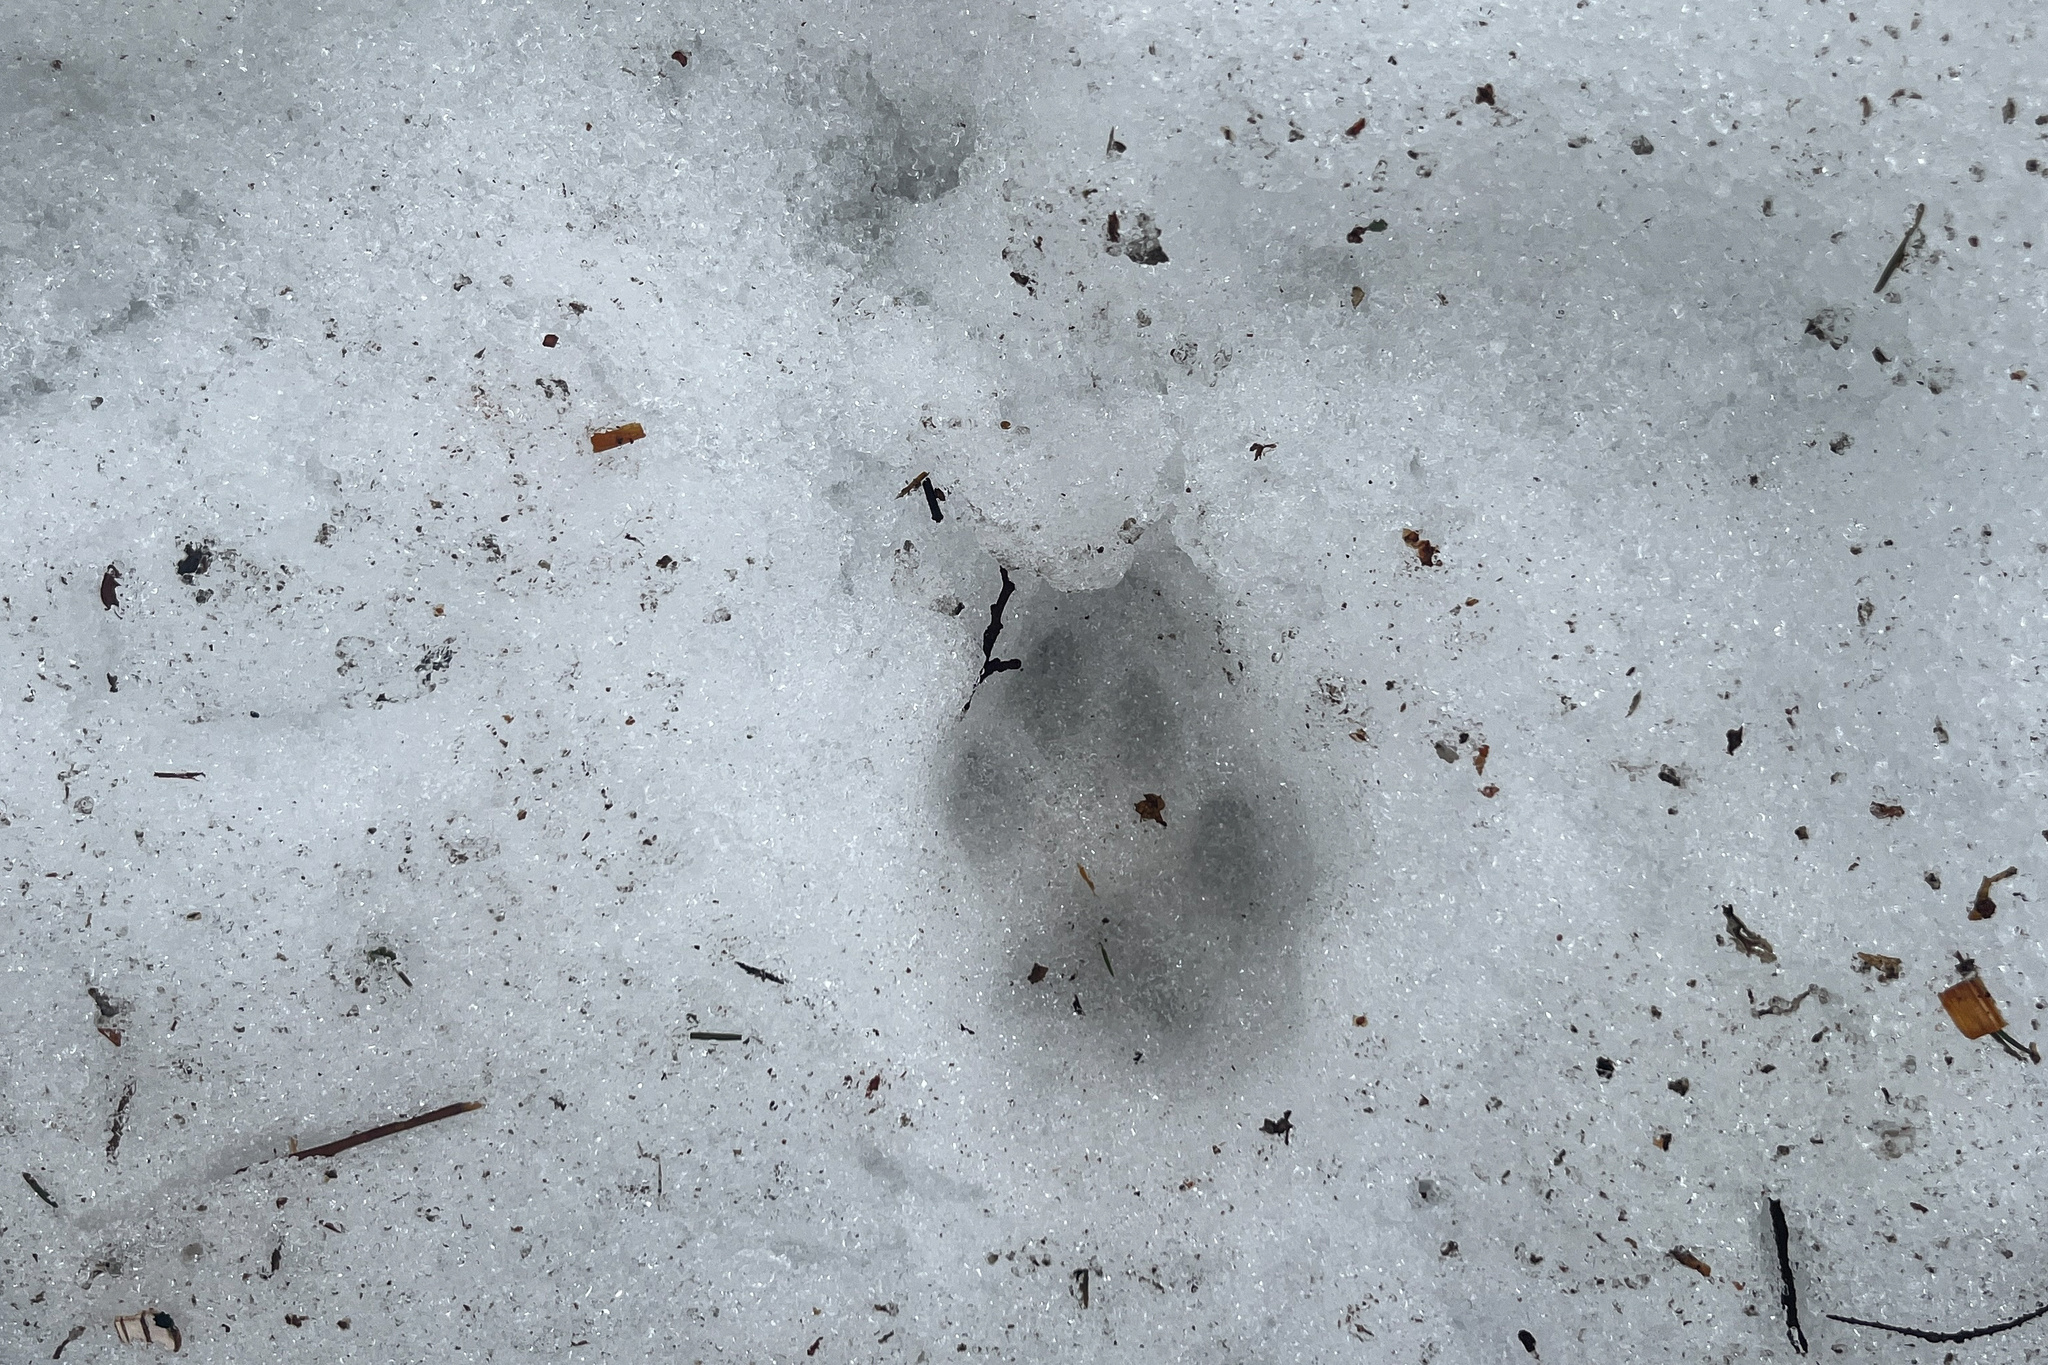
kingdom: Animalia
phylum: Chordata
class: Mammalia
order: Carnivora
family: Felidae
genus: Lynx
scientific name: Lynx lynx
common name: Eurasian lynx
